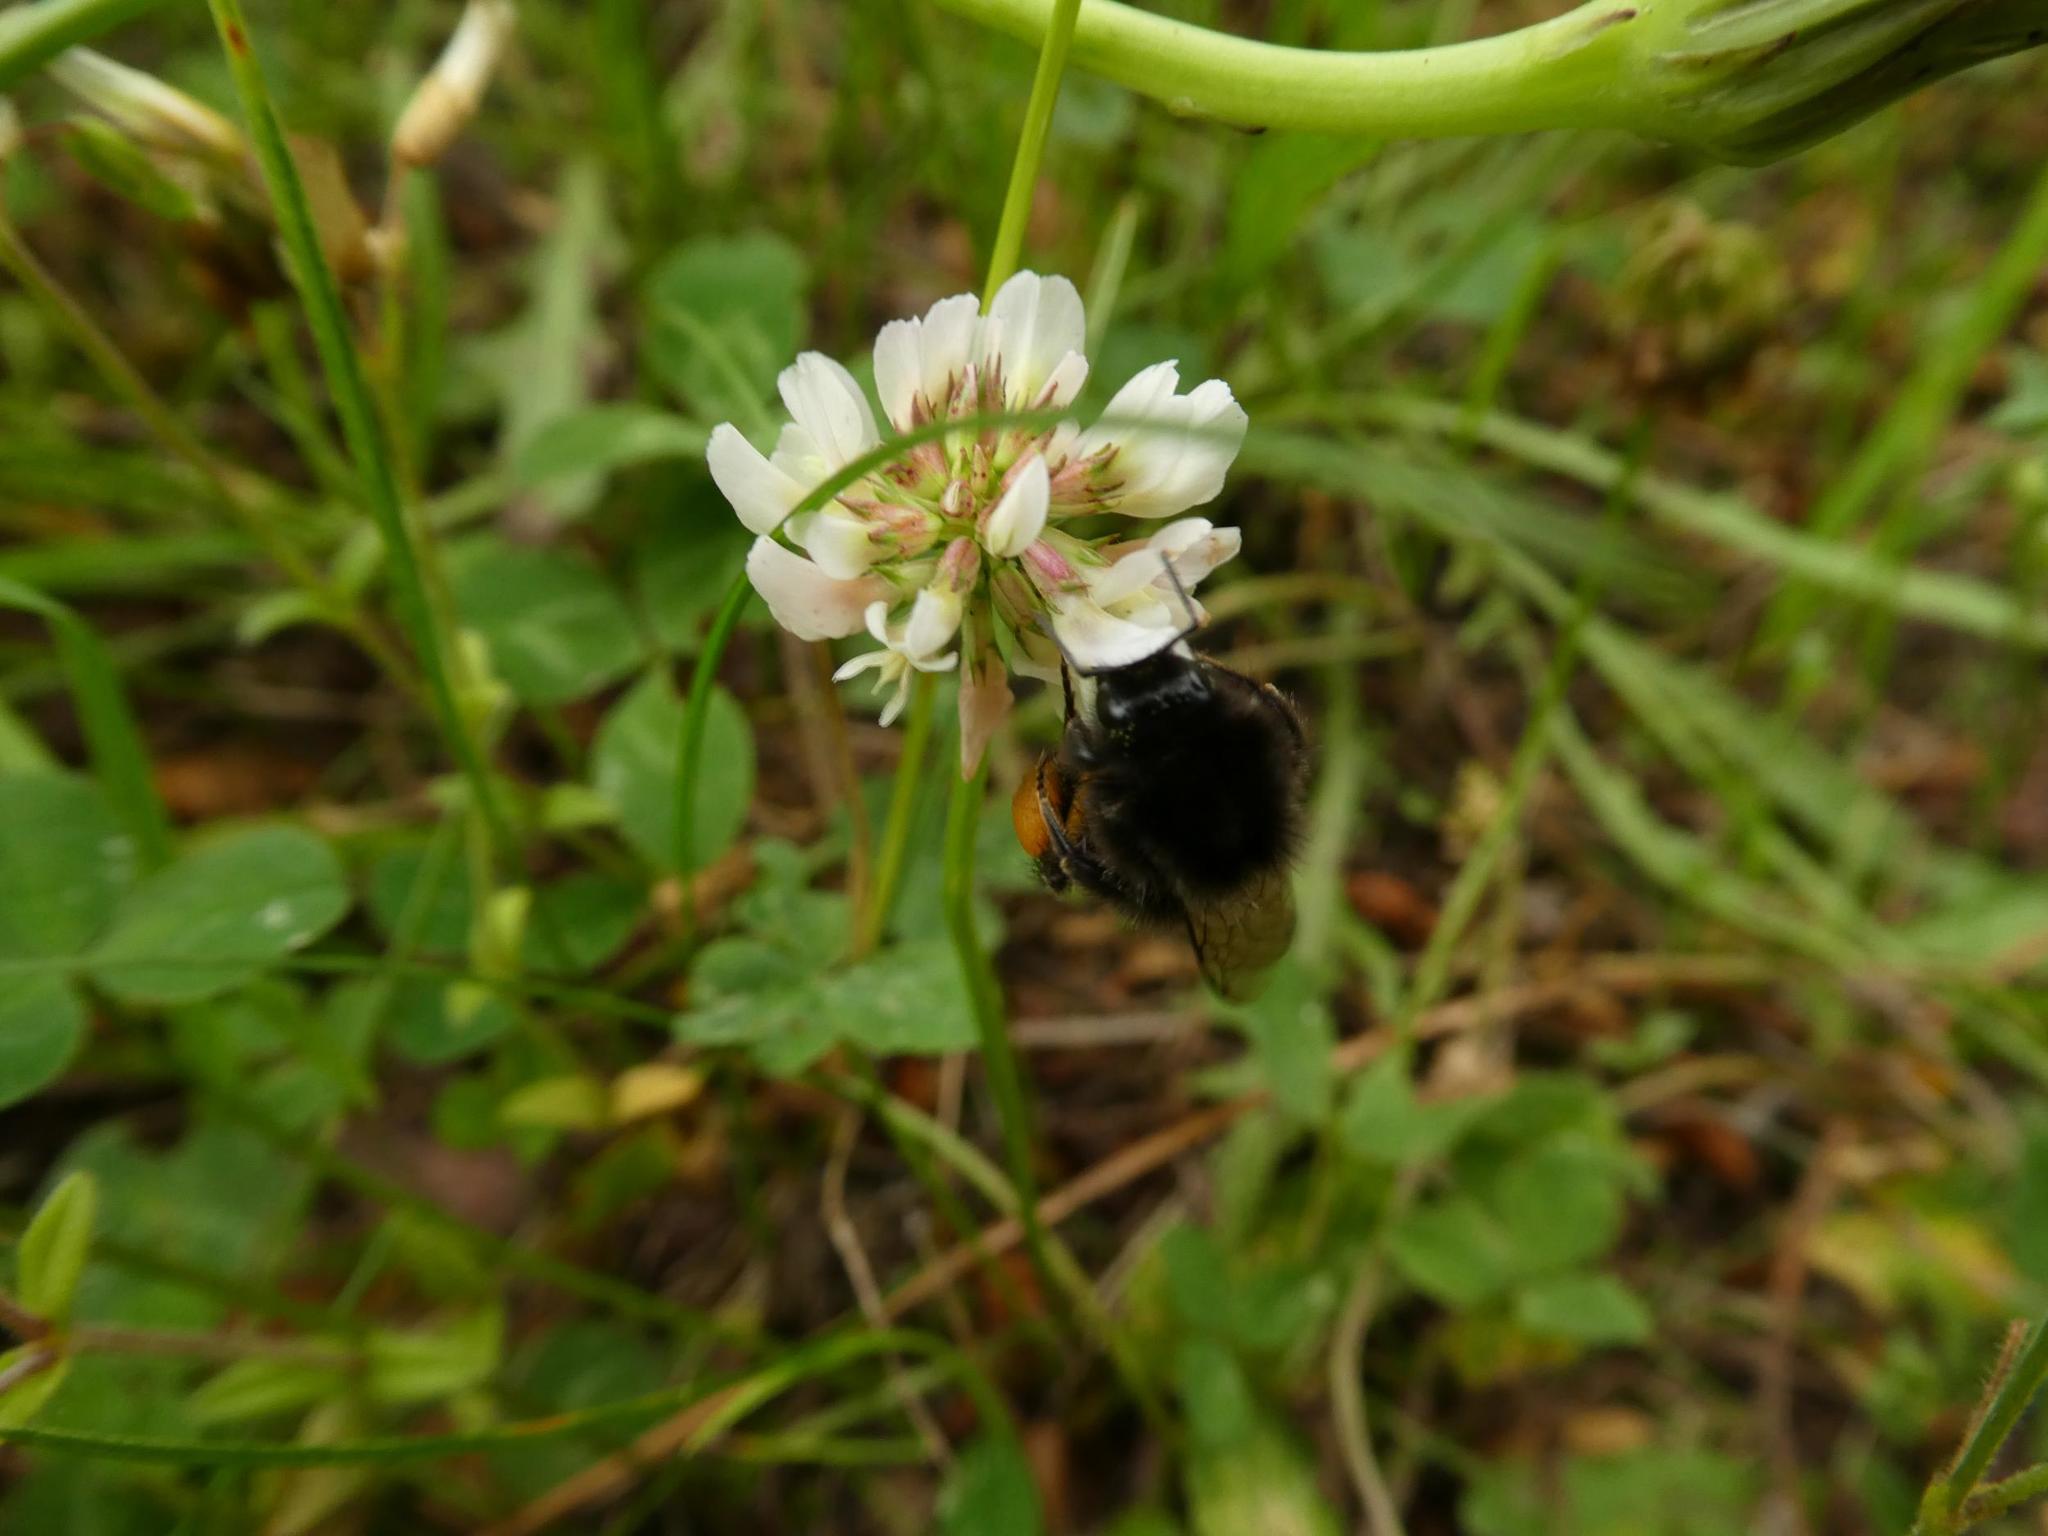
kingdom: Plantae
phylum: Tracheophyta
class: Magnoliopsida
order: Fabales
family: Fabaceae
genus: Trifolium
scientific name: Trifolium repens
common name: White clover
